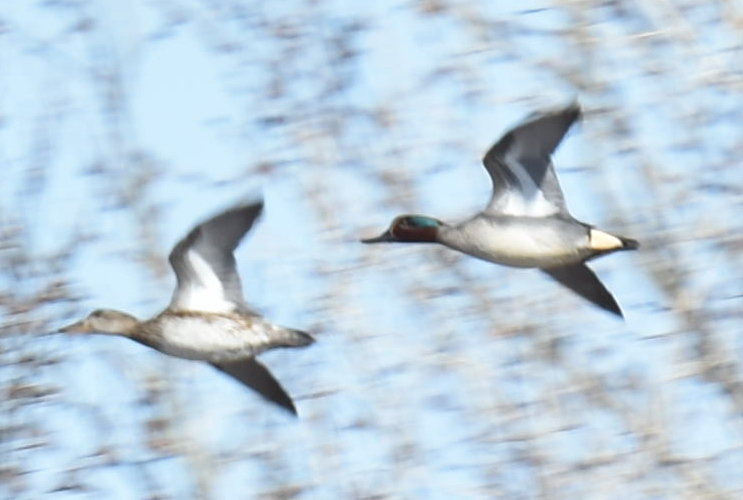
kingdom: Animalia
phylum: Chordata
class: Aves
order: Anseriformes
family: Anatidae
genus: Anas
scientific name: Anas crecca
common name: Eurasian teal
